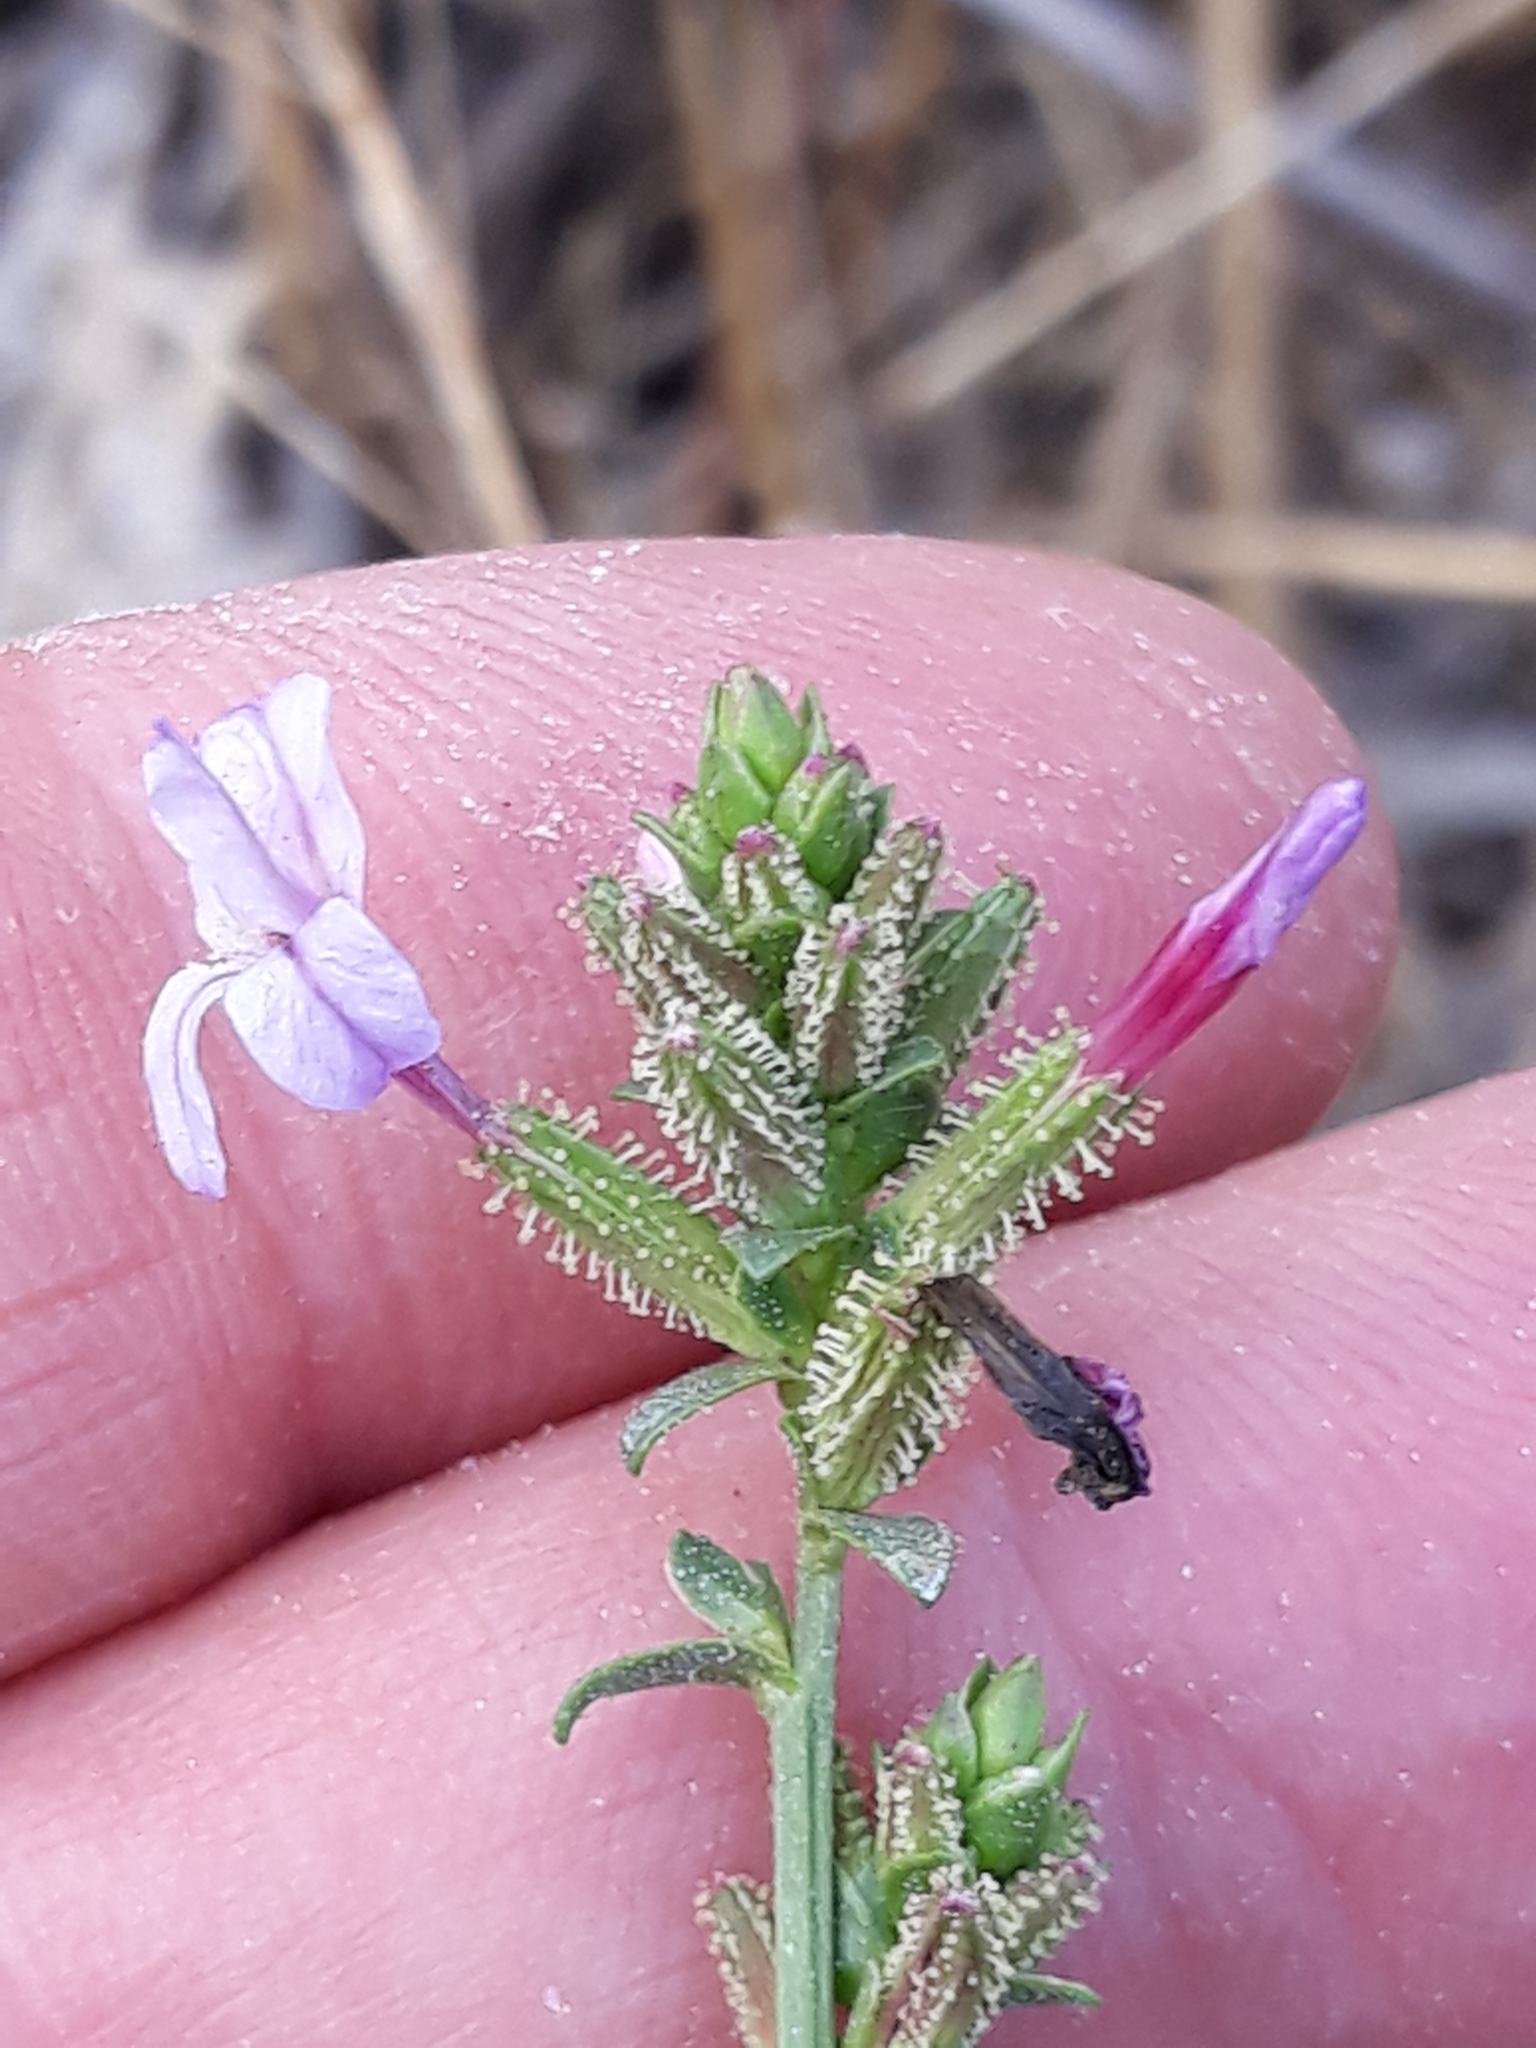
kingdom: Plantae
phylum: Tracheophyta
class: Magnoliopsida
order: Caryophyllales
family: Plumbaginaceae
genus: Plumbago
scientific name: Plumbago europaea
